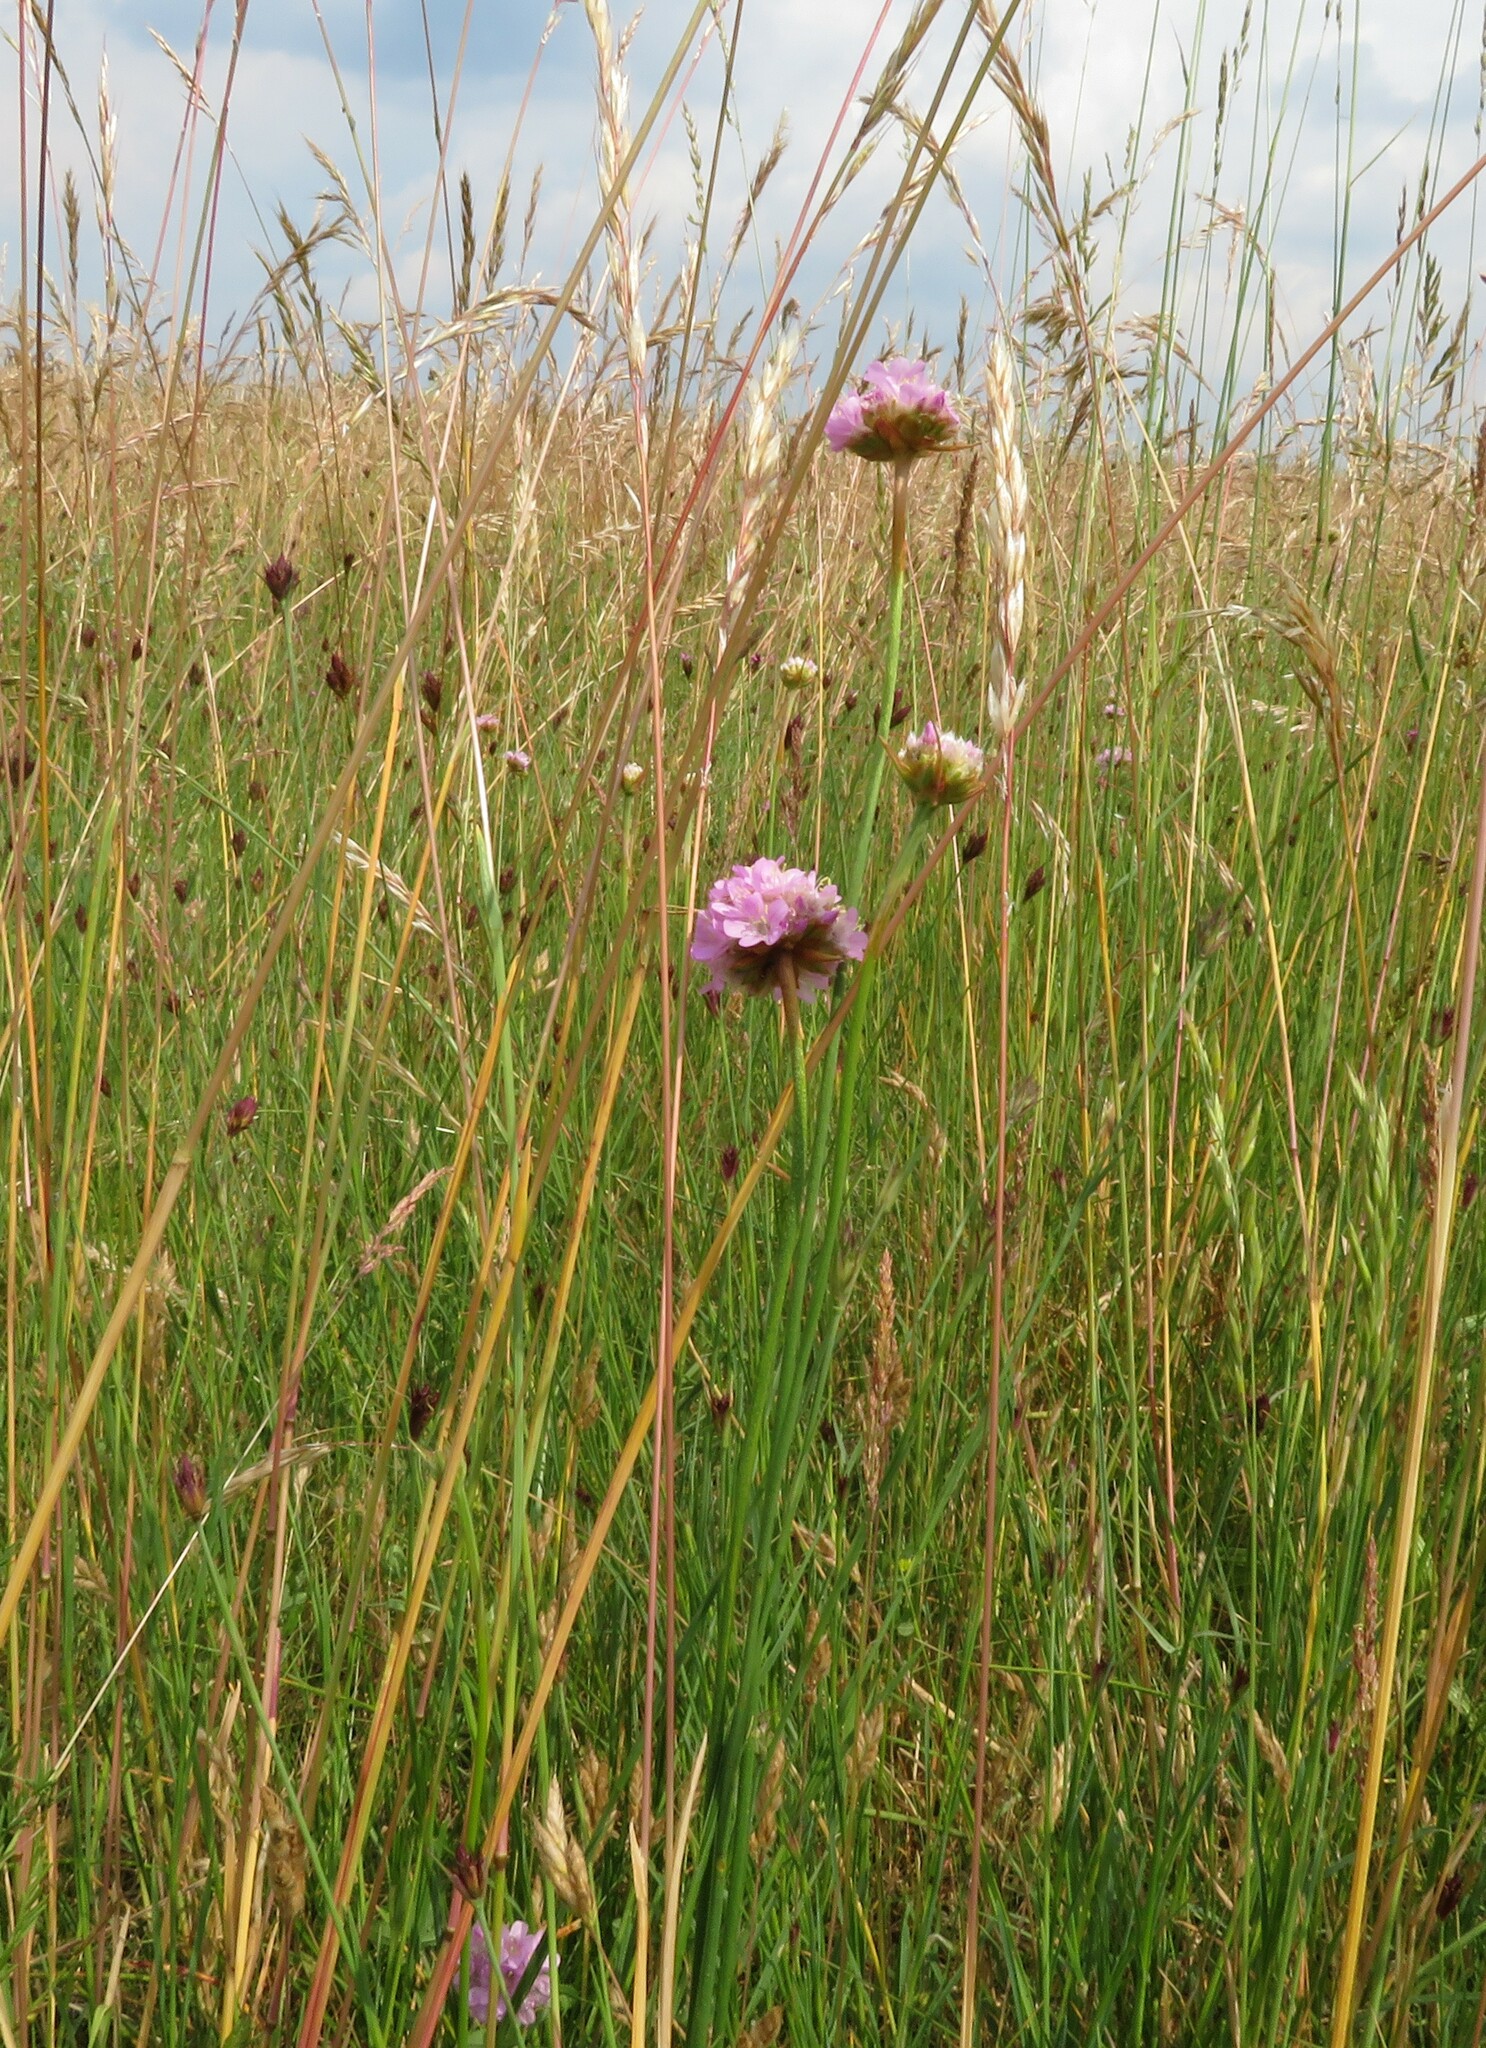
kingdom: Plantae
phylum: Tracheophyta
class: Magnoliopsida
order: Caryophyllales
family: Plumbaginaceae
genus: Armeria
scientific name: Armeria maritima
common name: Thrift
